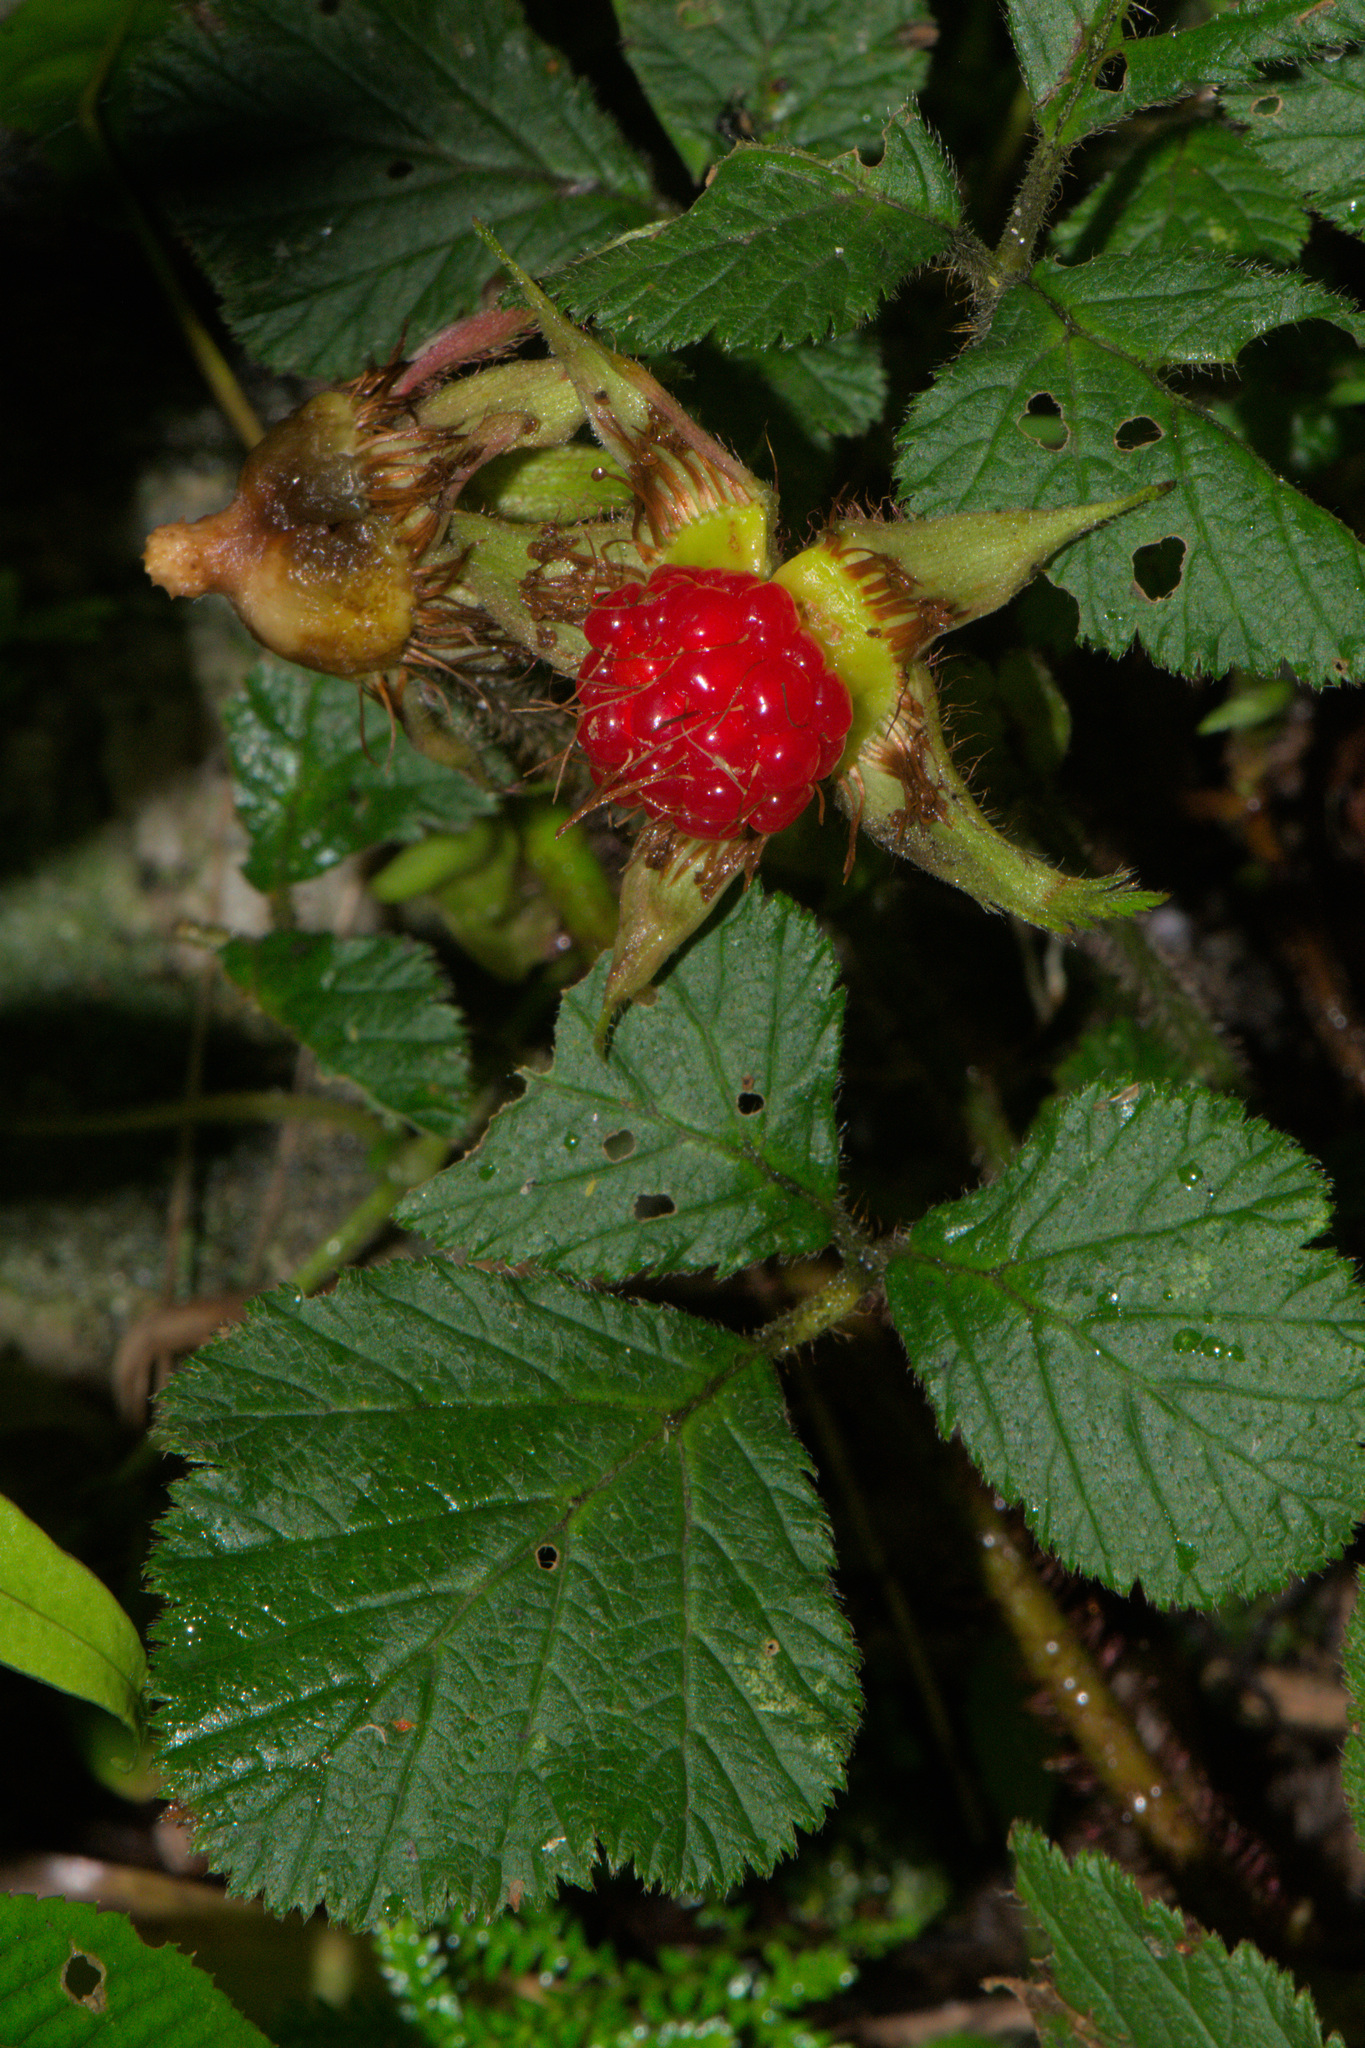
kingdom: Plantae
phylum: Tracheophyta
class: Magnoliopsida
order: Rosales
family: Rosaceae
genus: Rubus
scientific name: Rubus nepalensis
